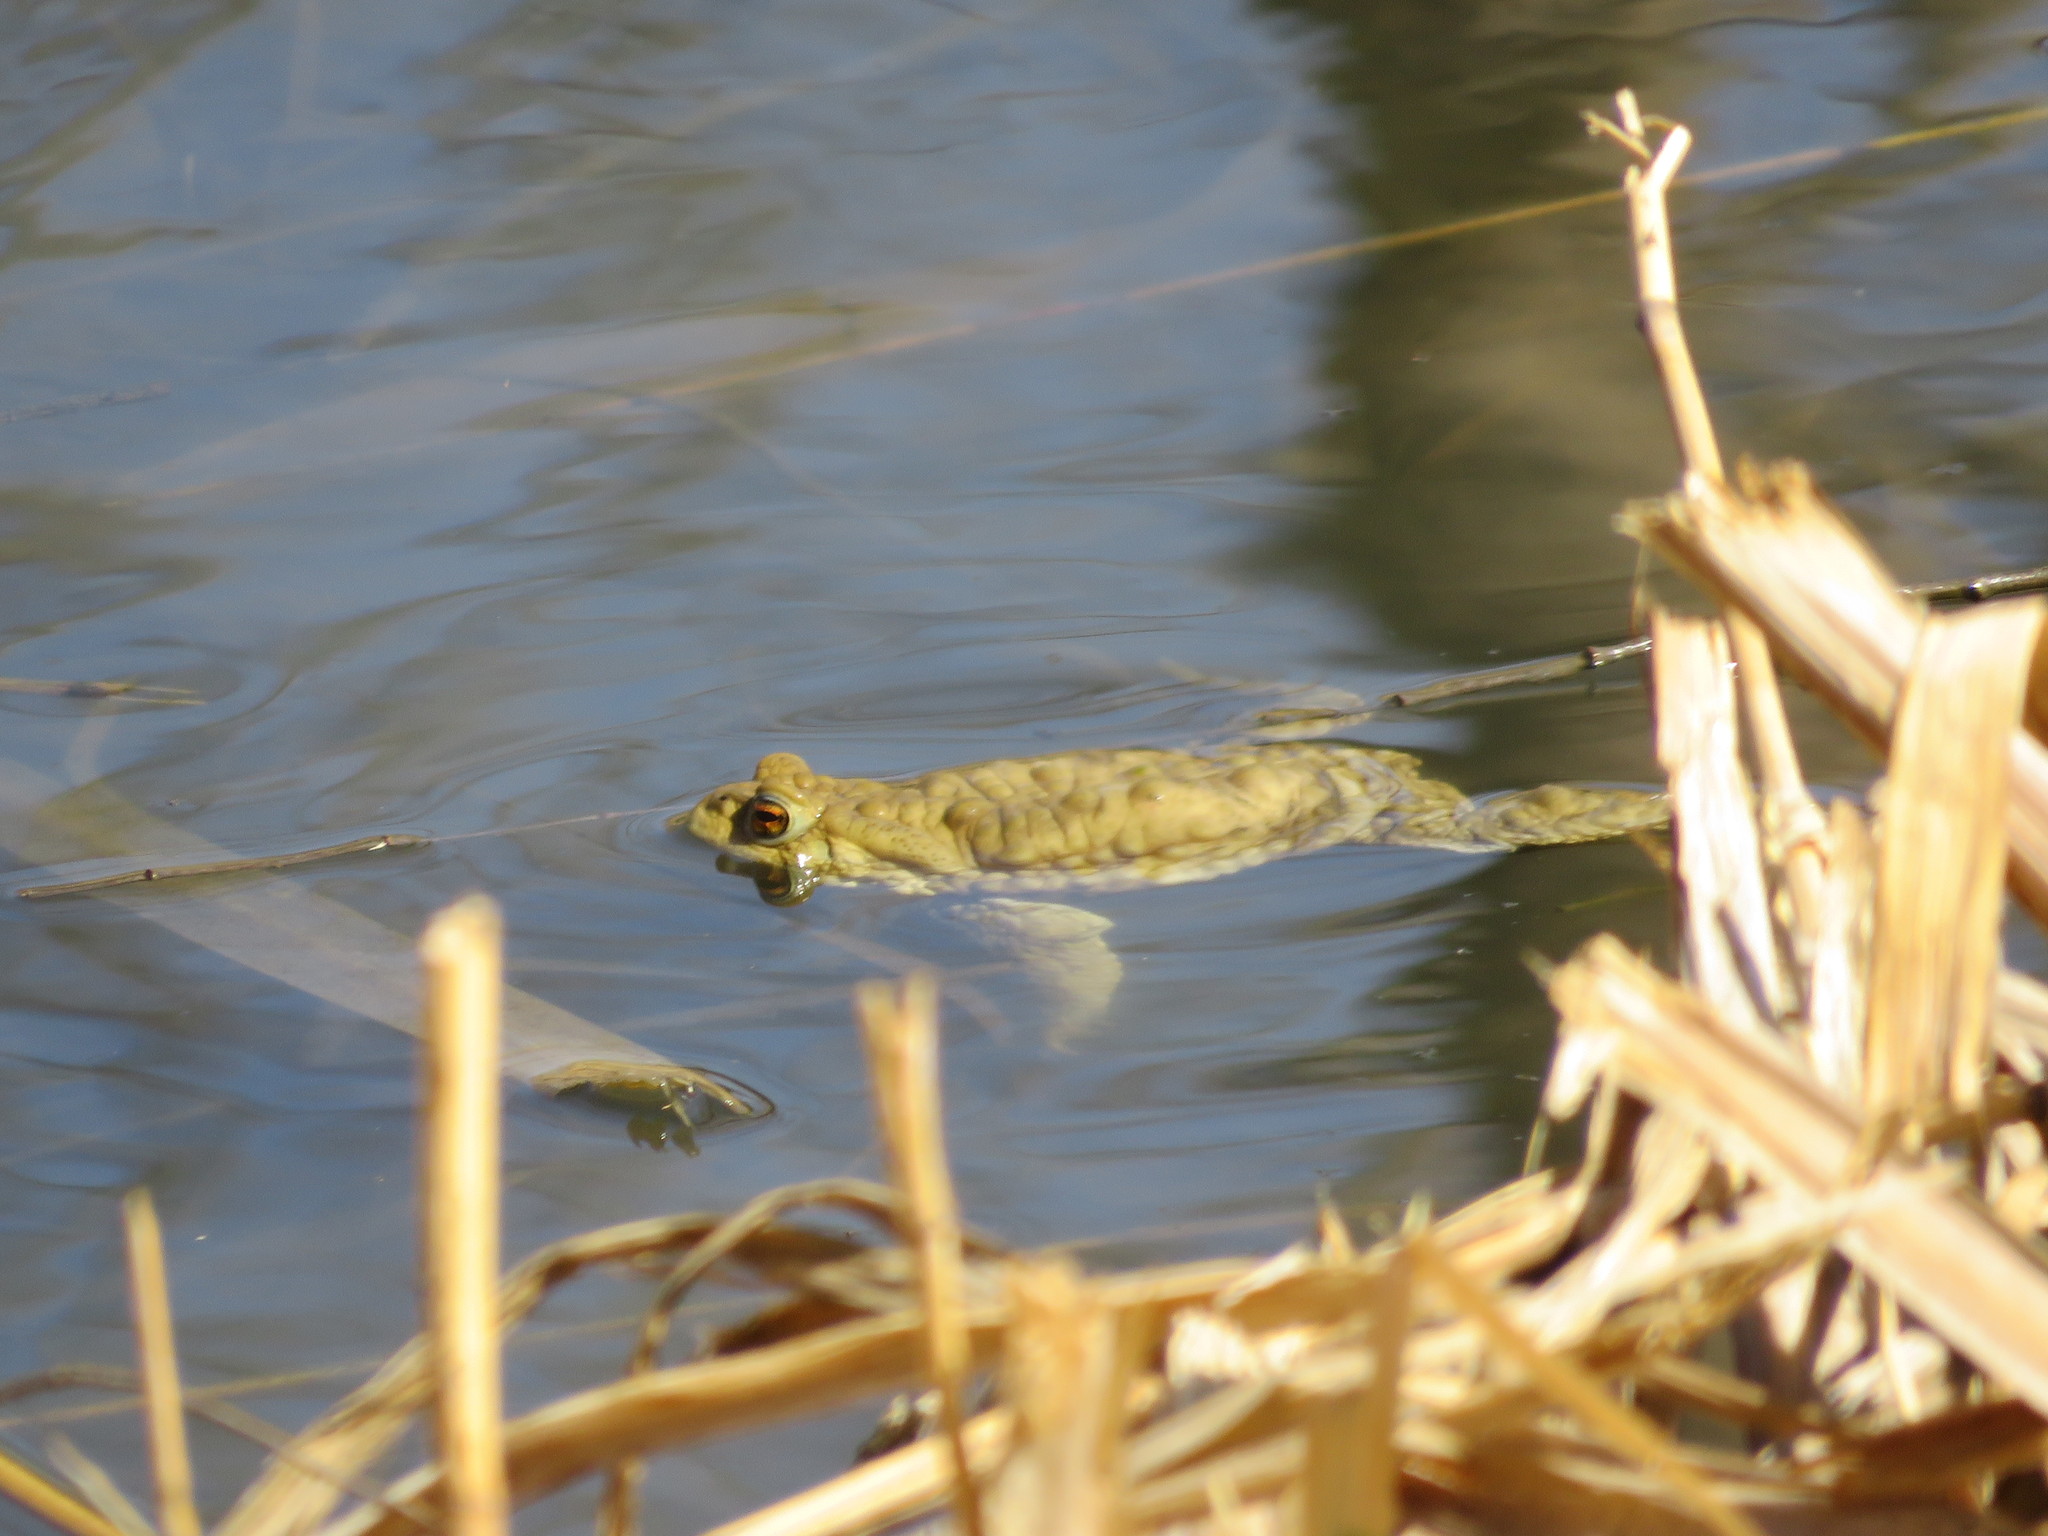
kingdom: Animalia
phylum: Chordata
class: Amphibia
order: Anura
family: Bufonidae
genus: Bufo
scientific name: Bufo gargarizans
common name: Asiatic toad
